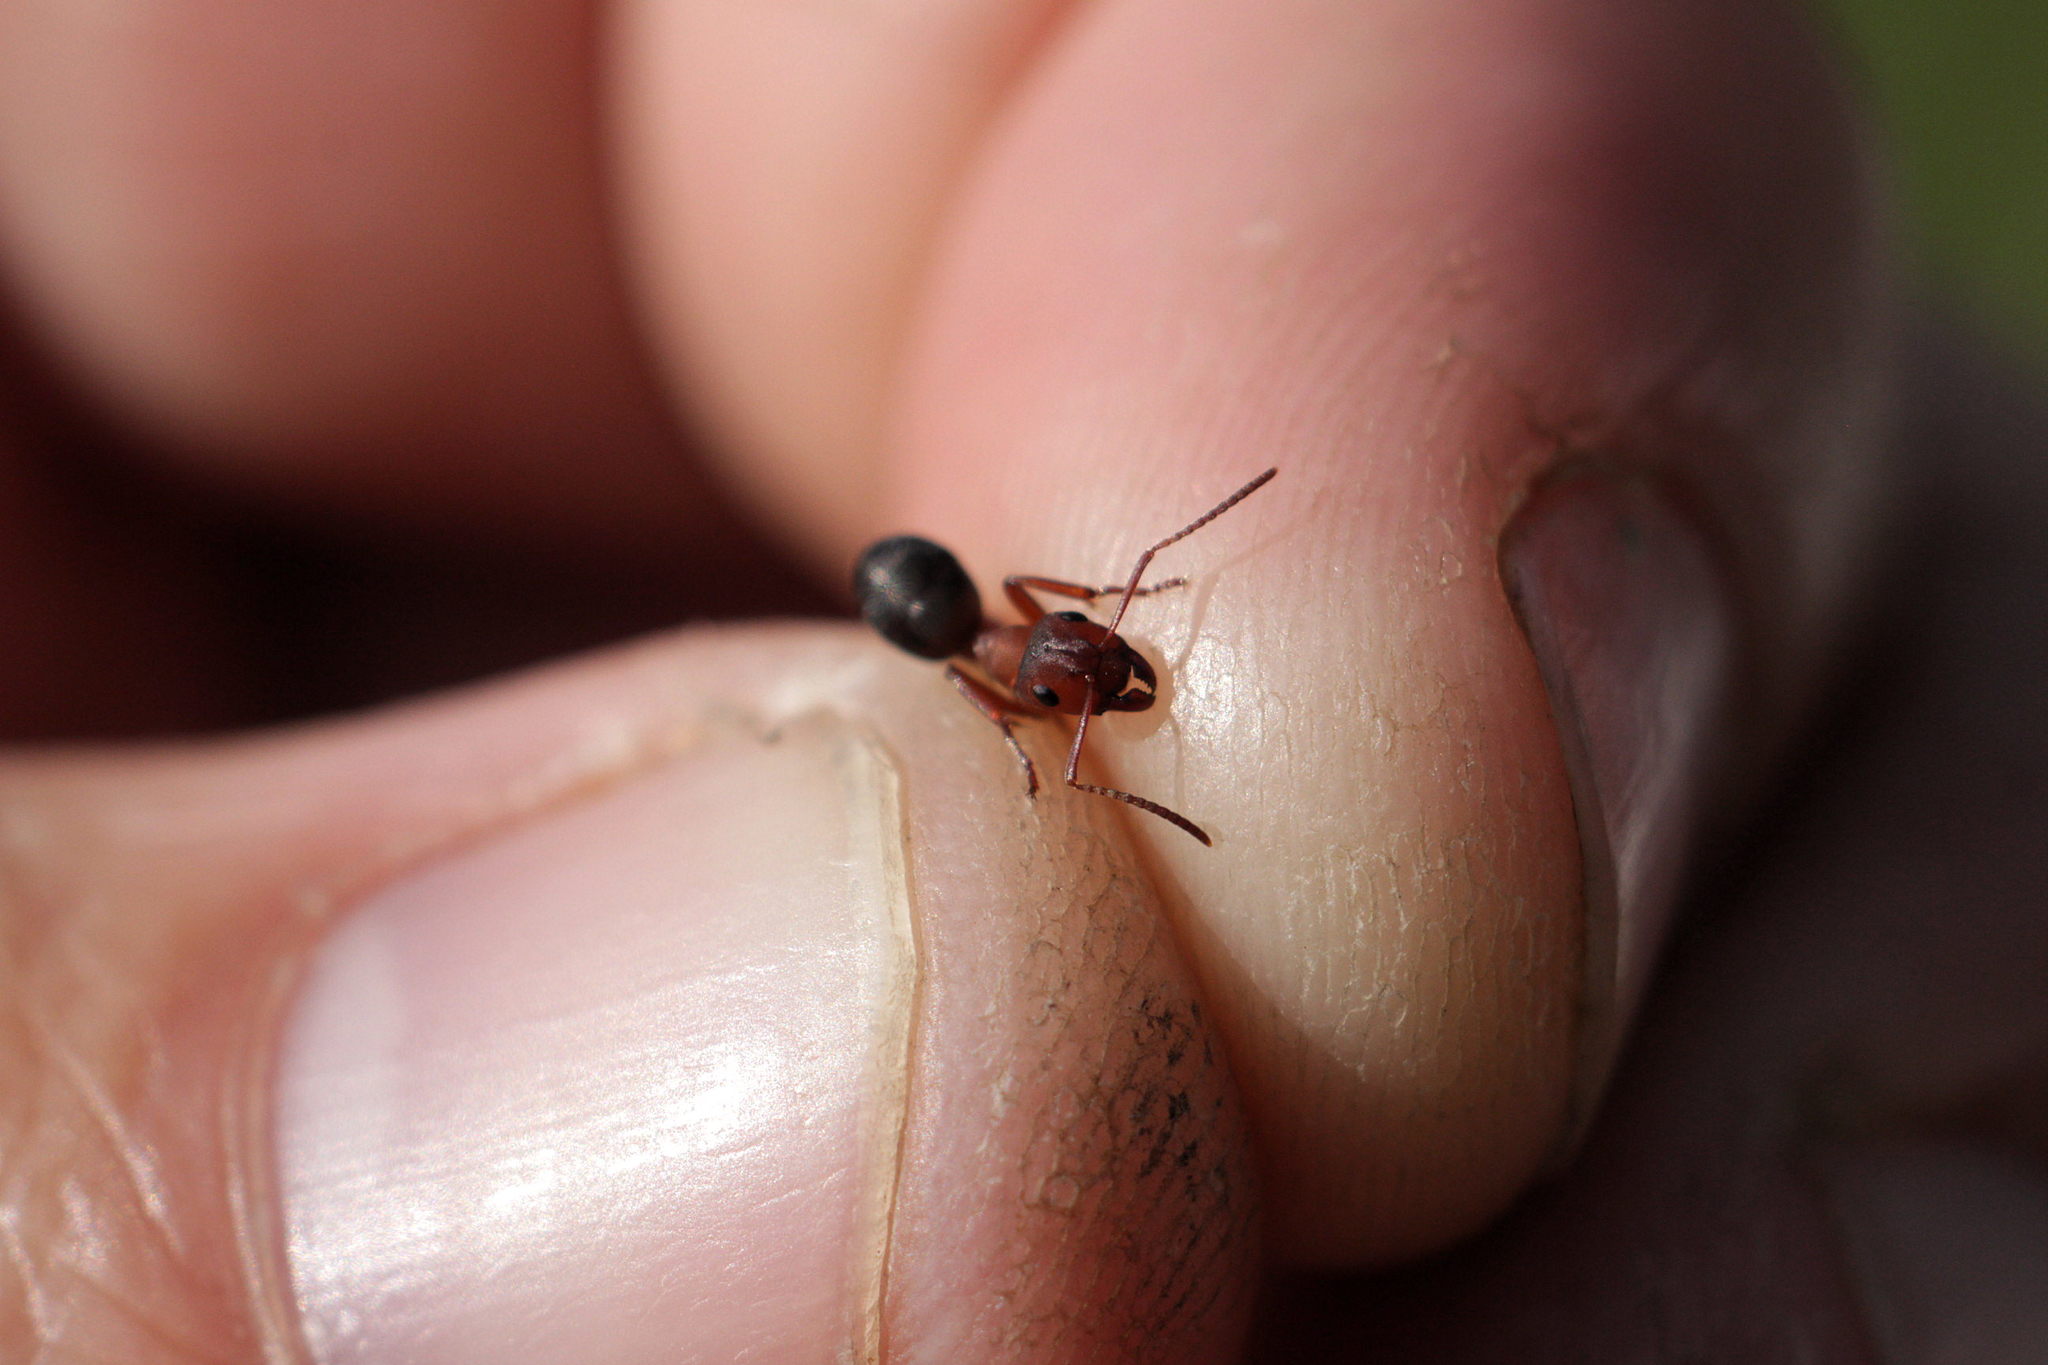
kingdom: Animalia
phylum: Arthropoda
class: Insecta
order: Hymenoptera
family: Formicidae
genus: Formica
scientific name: Formica sanguinea
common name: Blood-red ant
